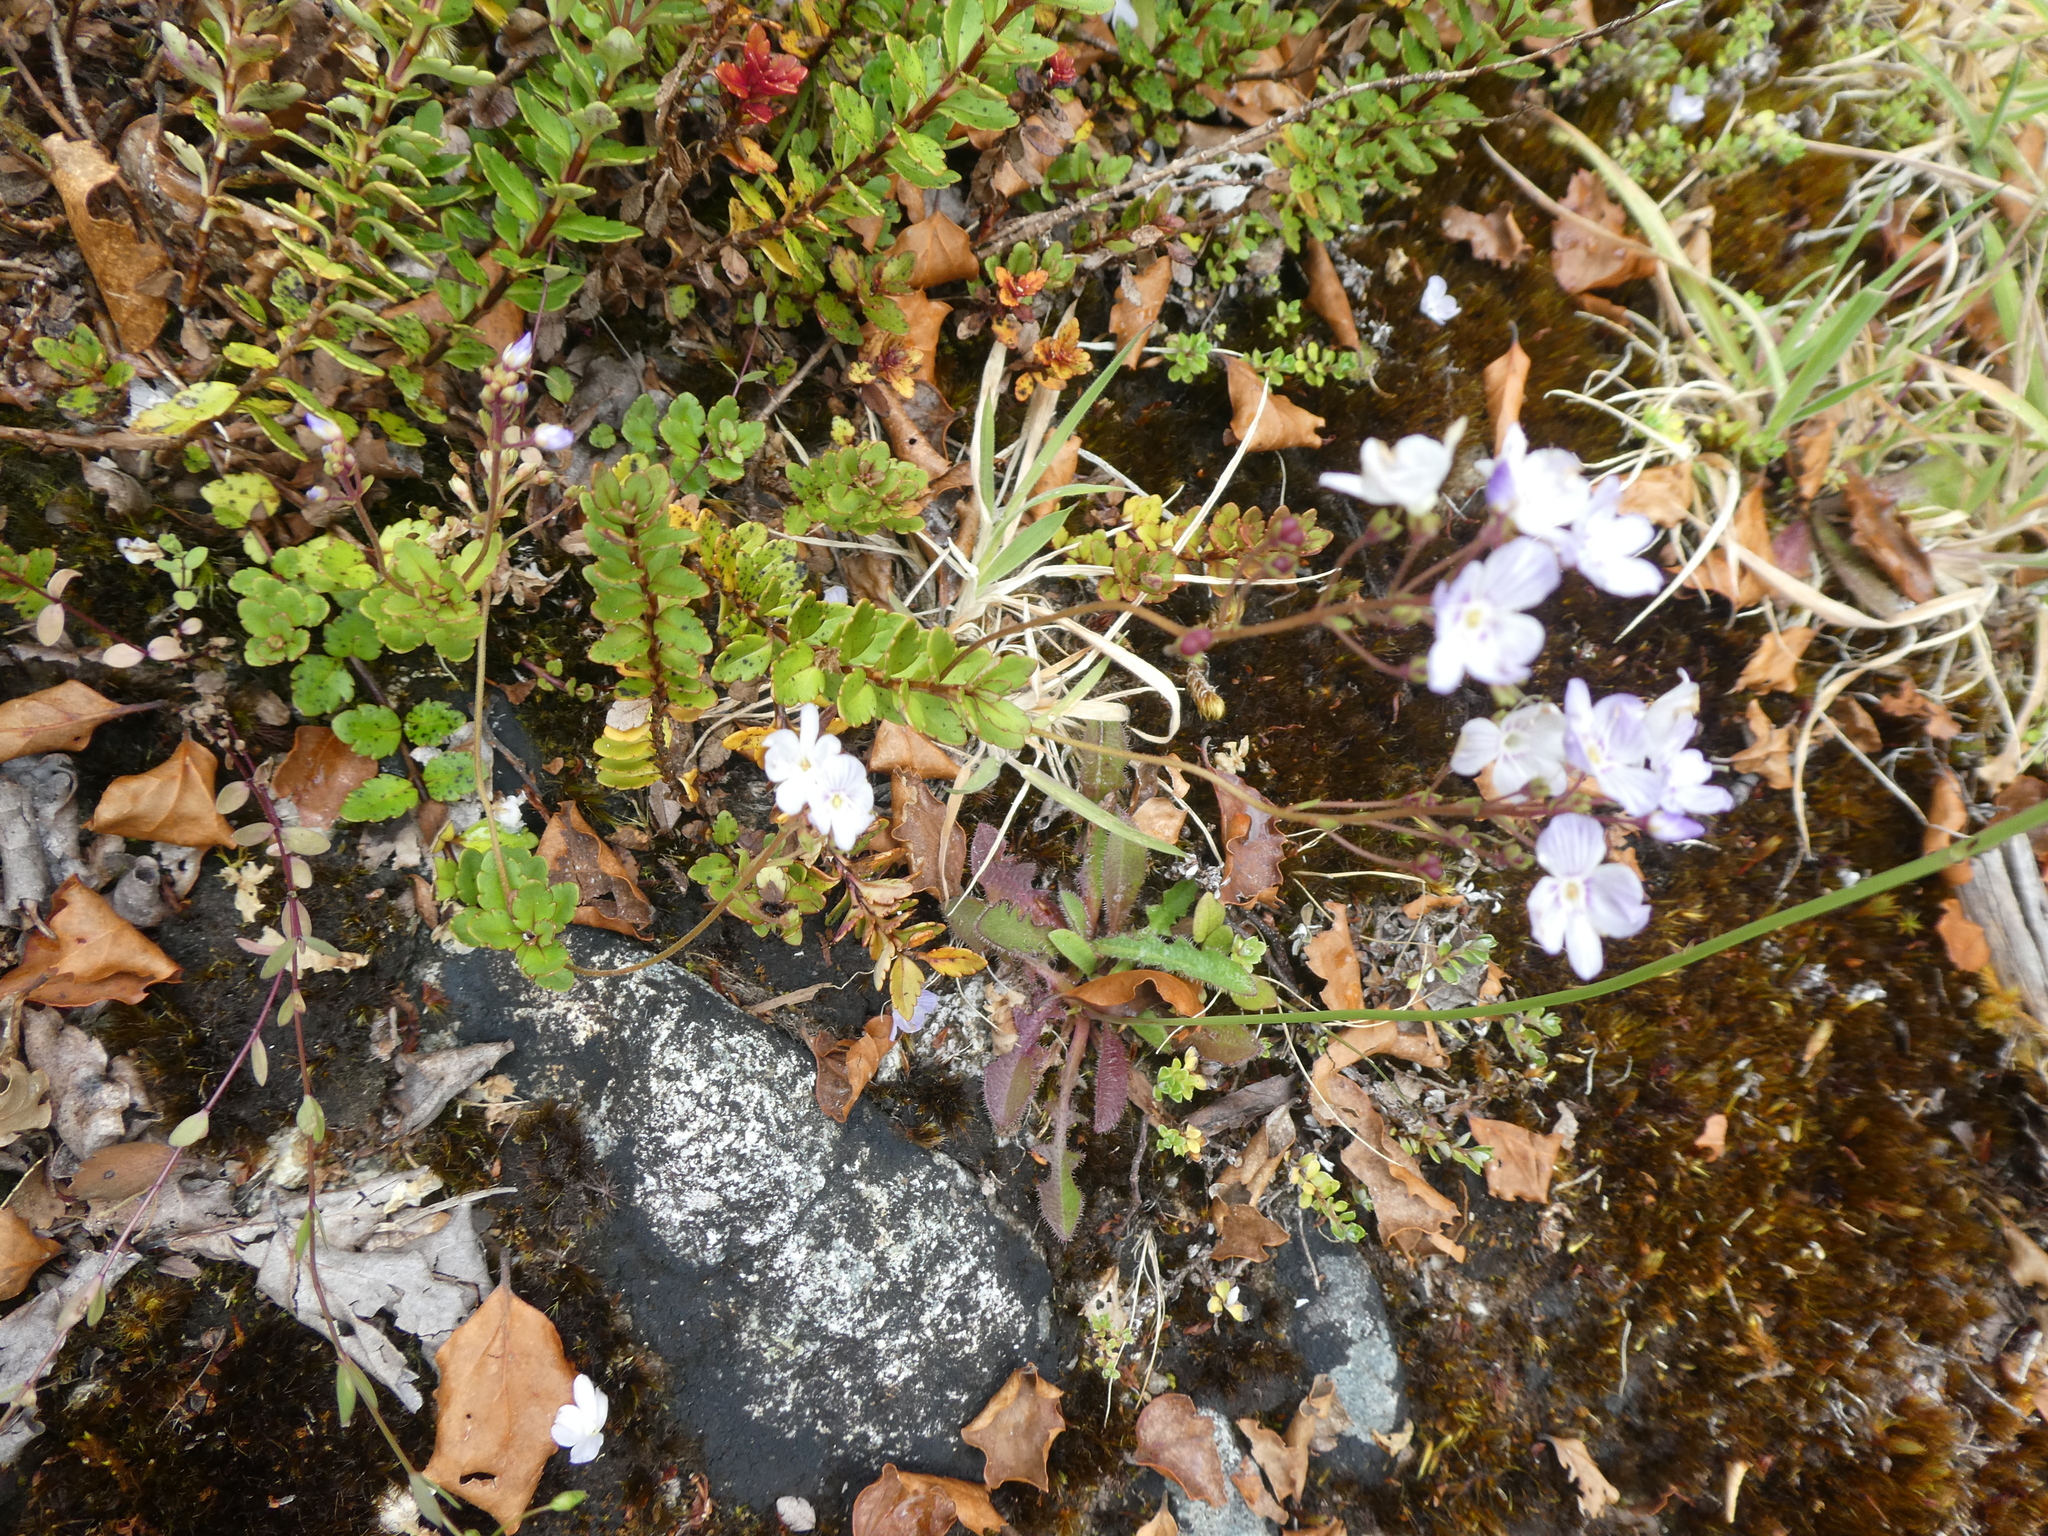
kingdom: Plantae
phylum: Tracheophyta
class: Magnoliopsida
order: Lamiales
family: Plantaginaceae
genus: Veronica
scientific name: Veronica lyallii
